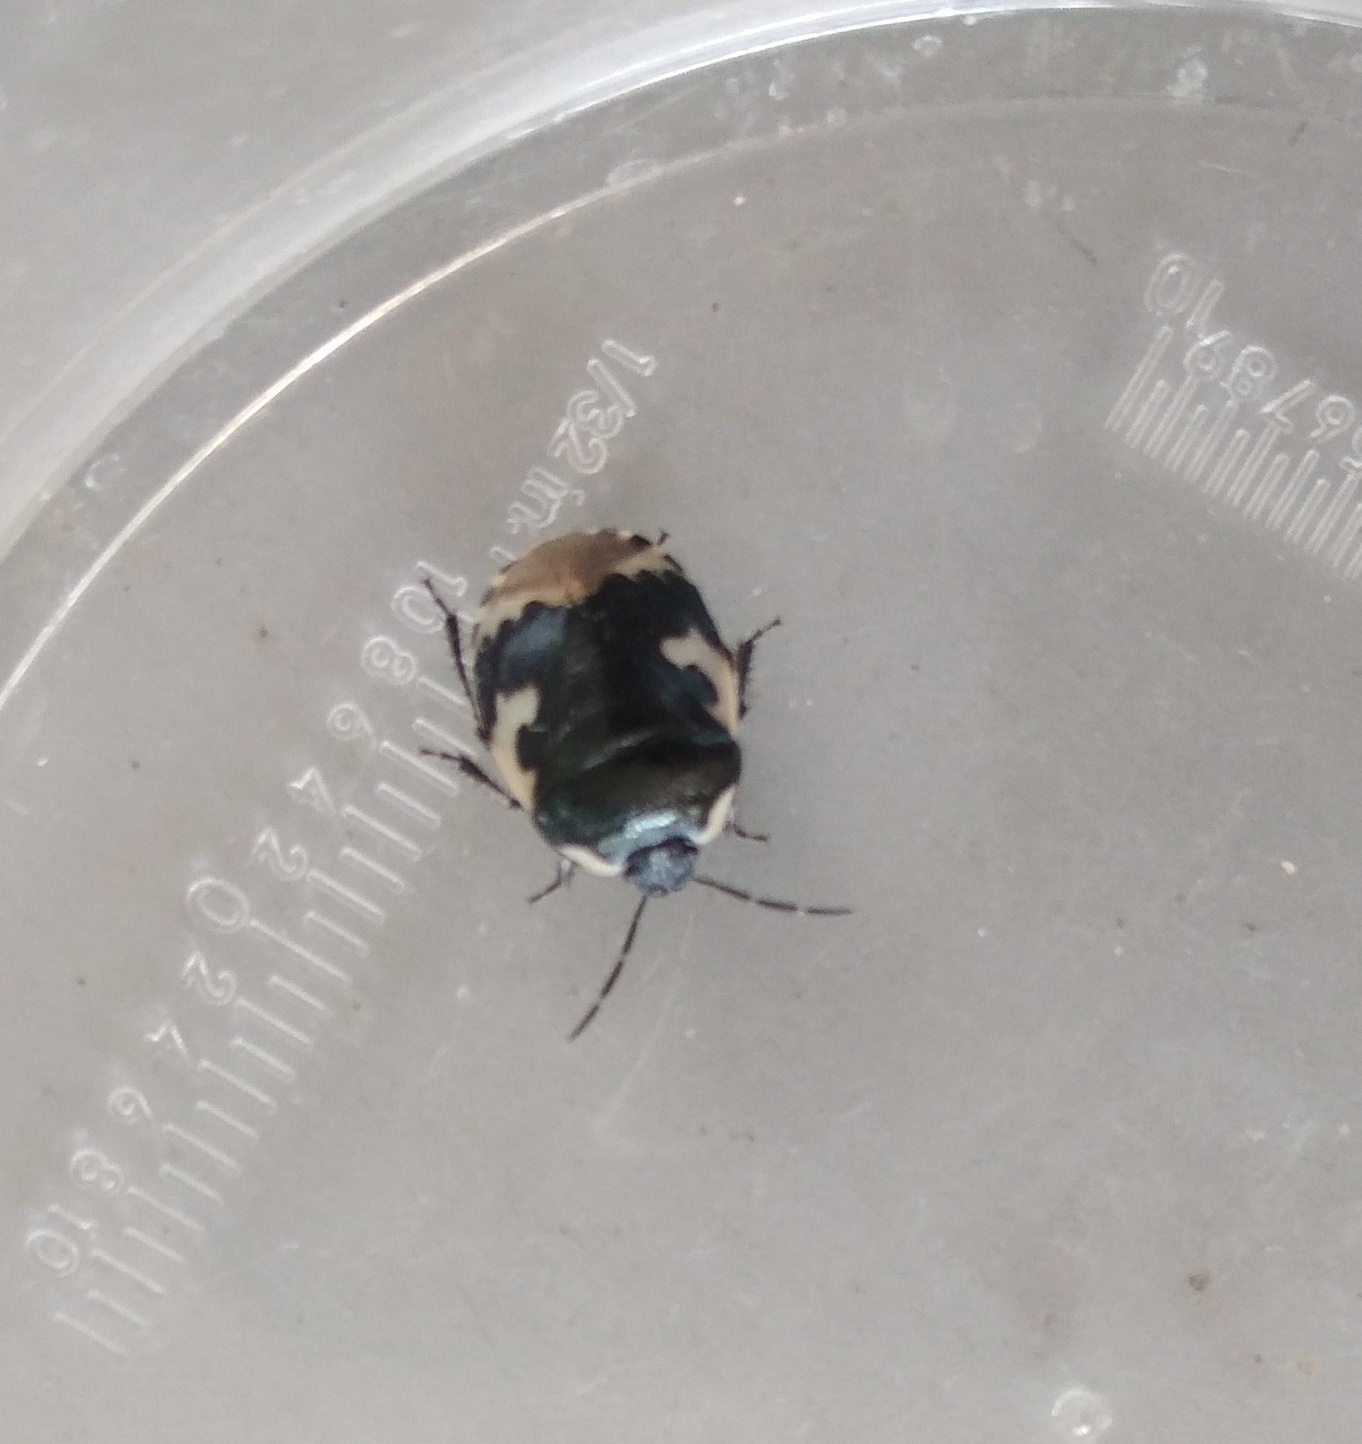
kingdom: Animalia
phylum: Arthropoda
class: Insecta
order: Hemiptera
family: Cydnidae
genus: Tritomegas
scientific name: Tritomegas bicolor
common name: Pied shieldbug
